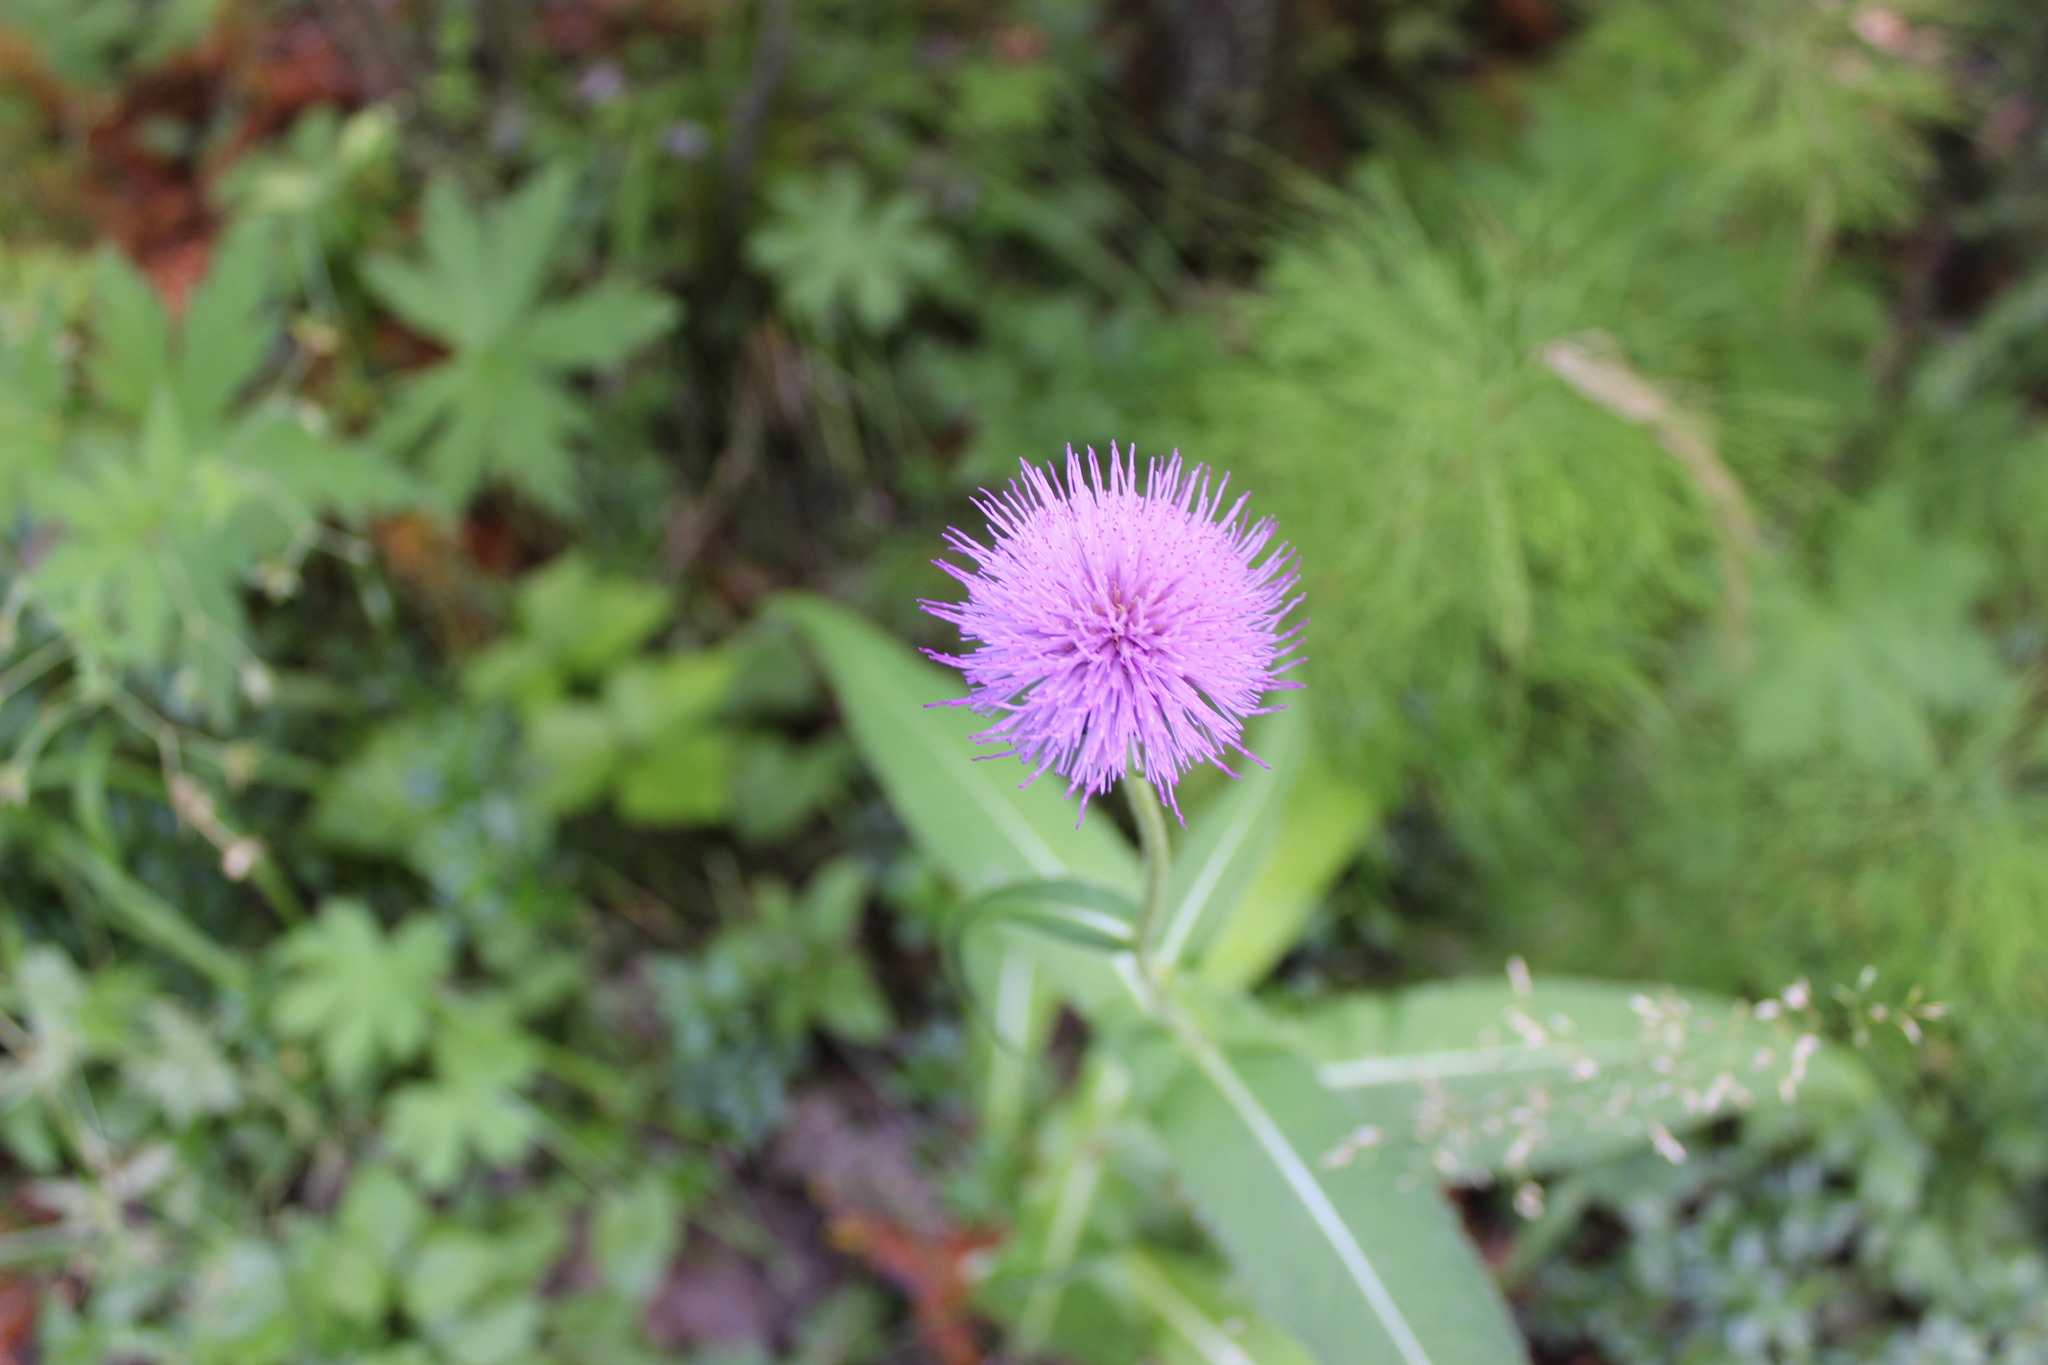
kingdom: Plantae
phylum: Tracheophyta
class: Magnoliopsida
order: Asterales
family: Asteraceae
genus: Cirsium
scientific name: Cirsium heterophyllum
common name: Melancholy thistle
